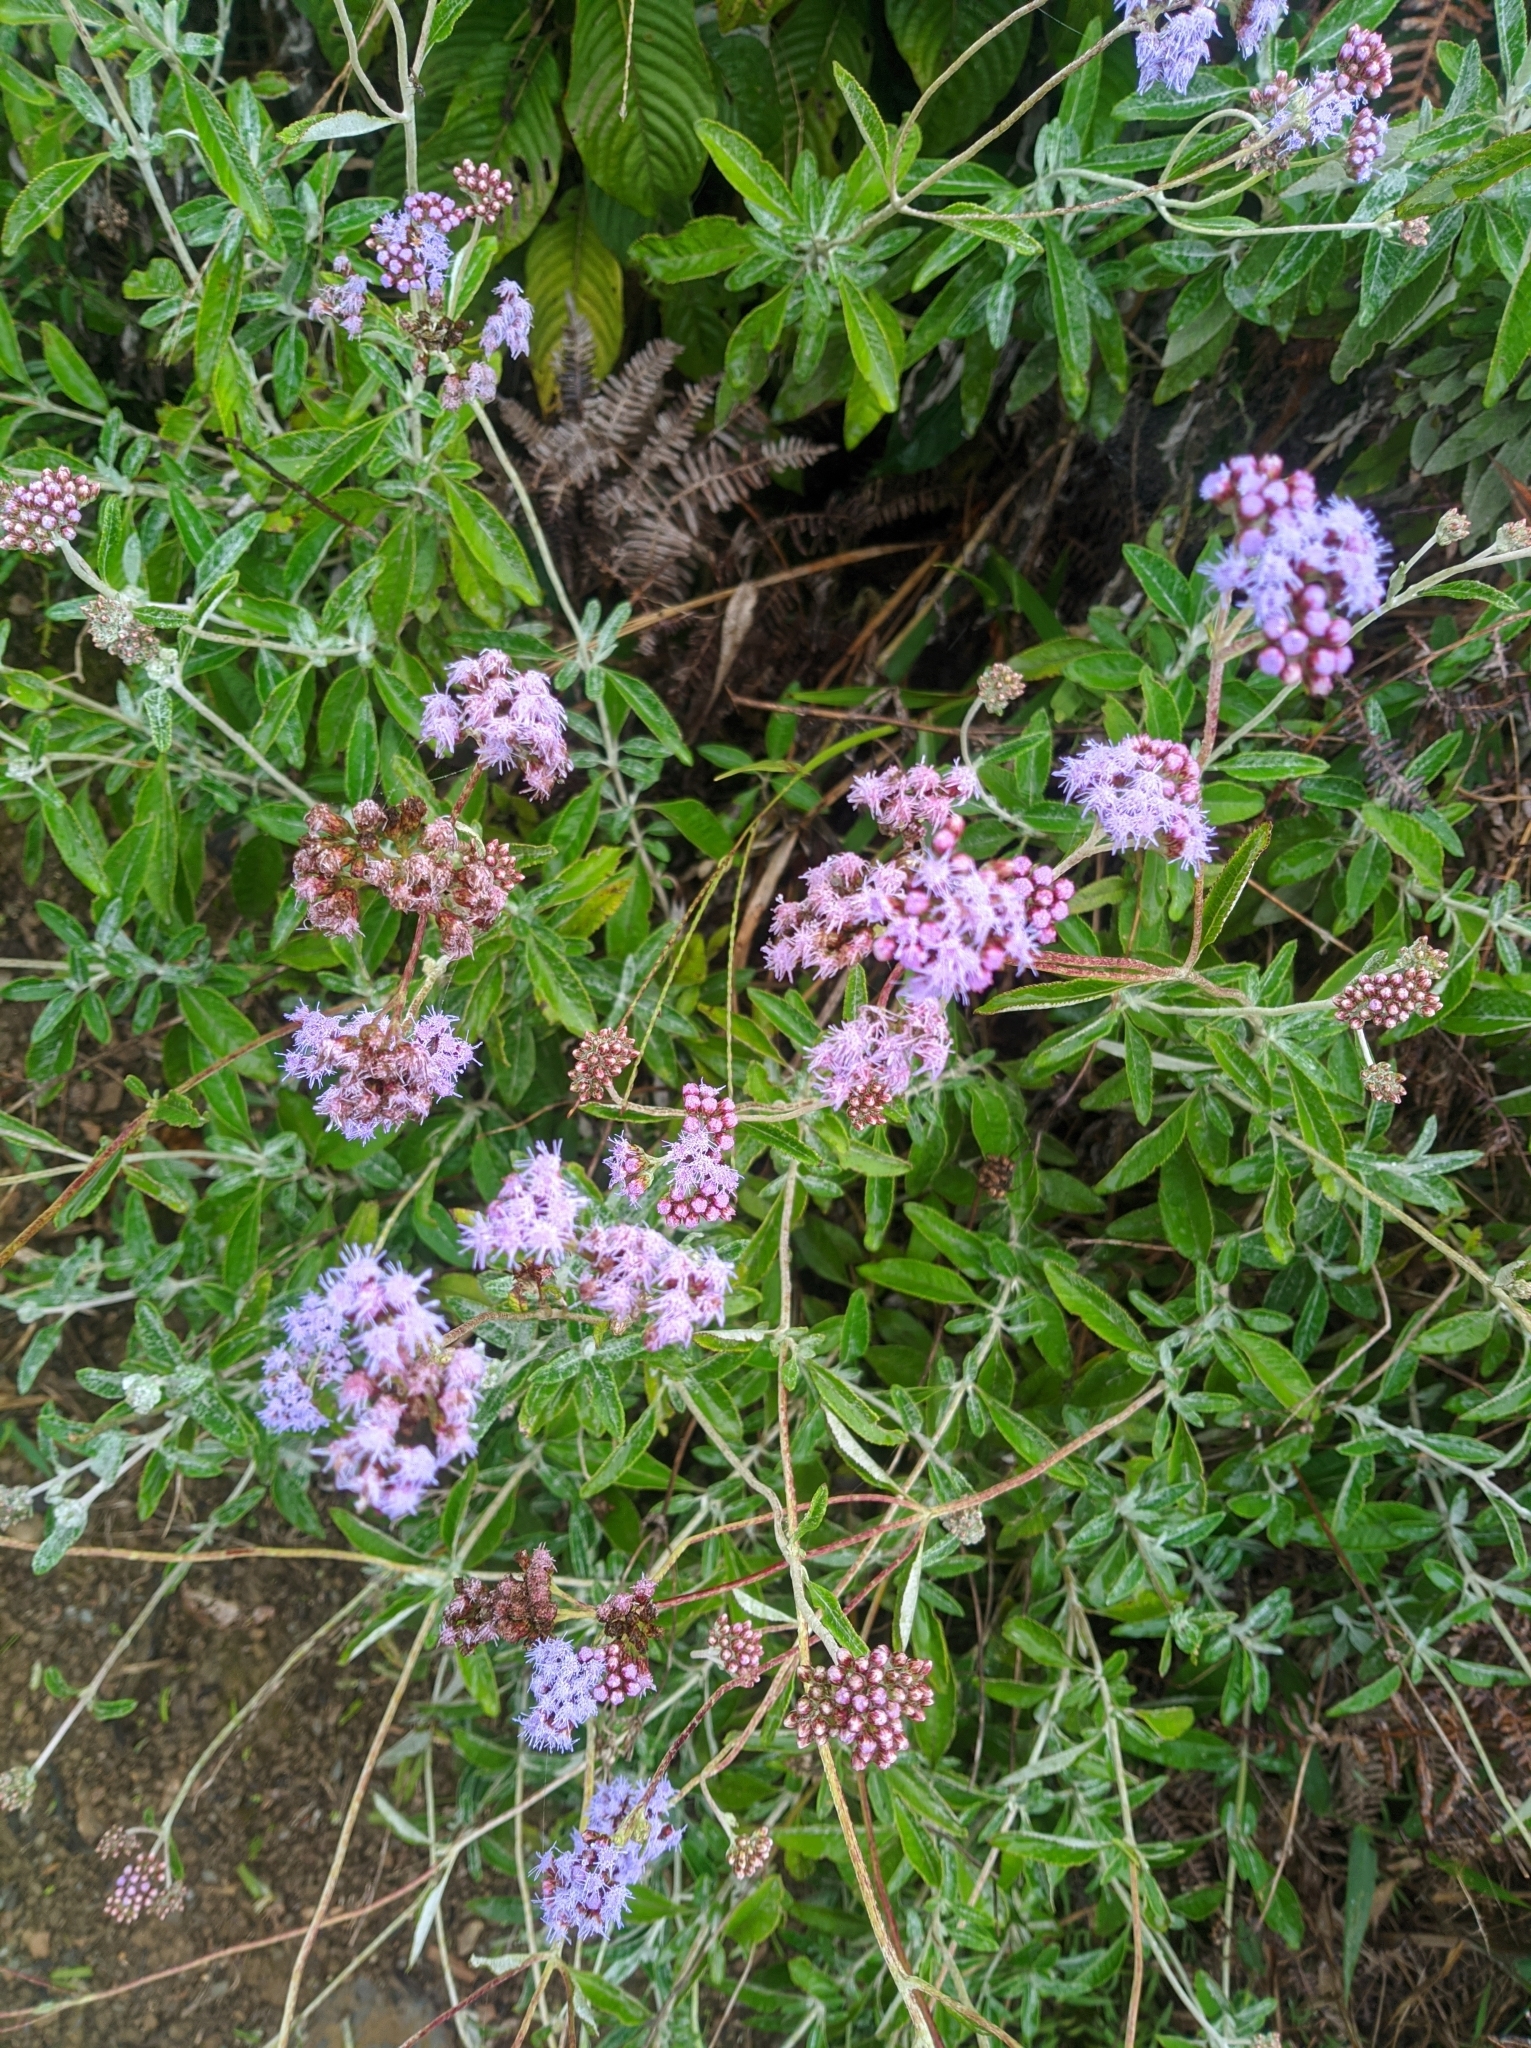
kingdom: Plantae
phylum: Tracheophyta
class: Magnoliopsida
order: Asterales
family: Asteraceae
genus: Lourteigia
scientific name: Lourteigia stoechadifolia
